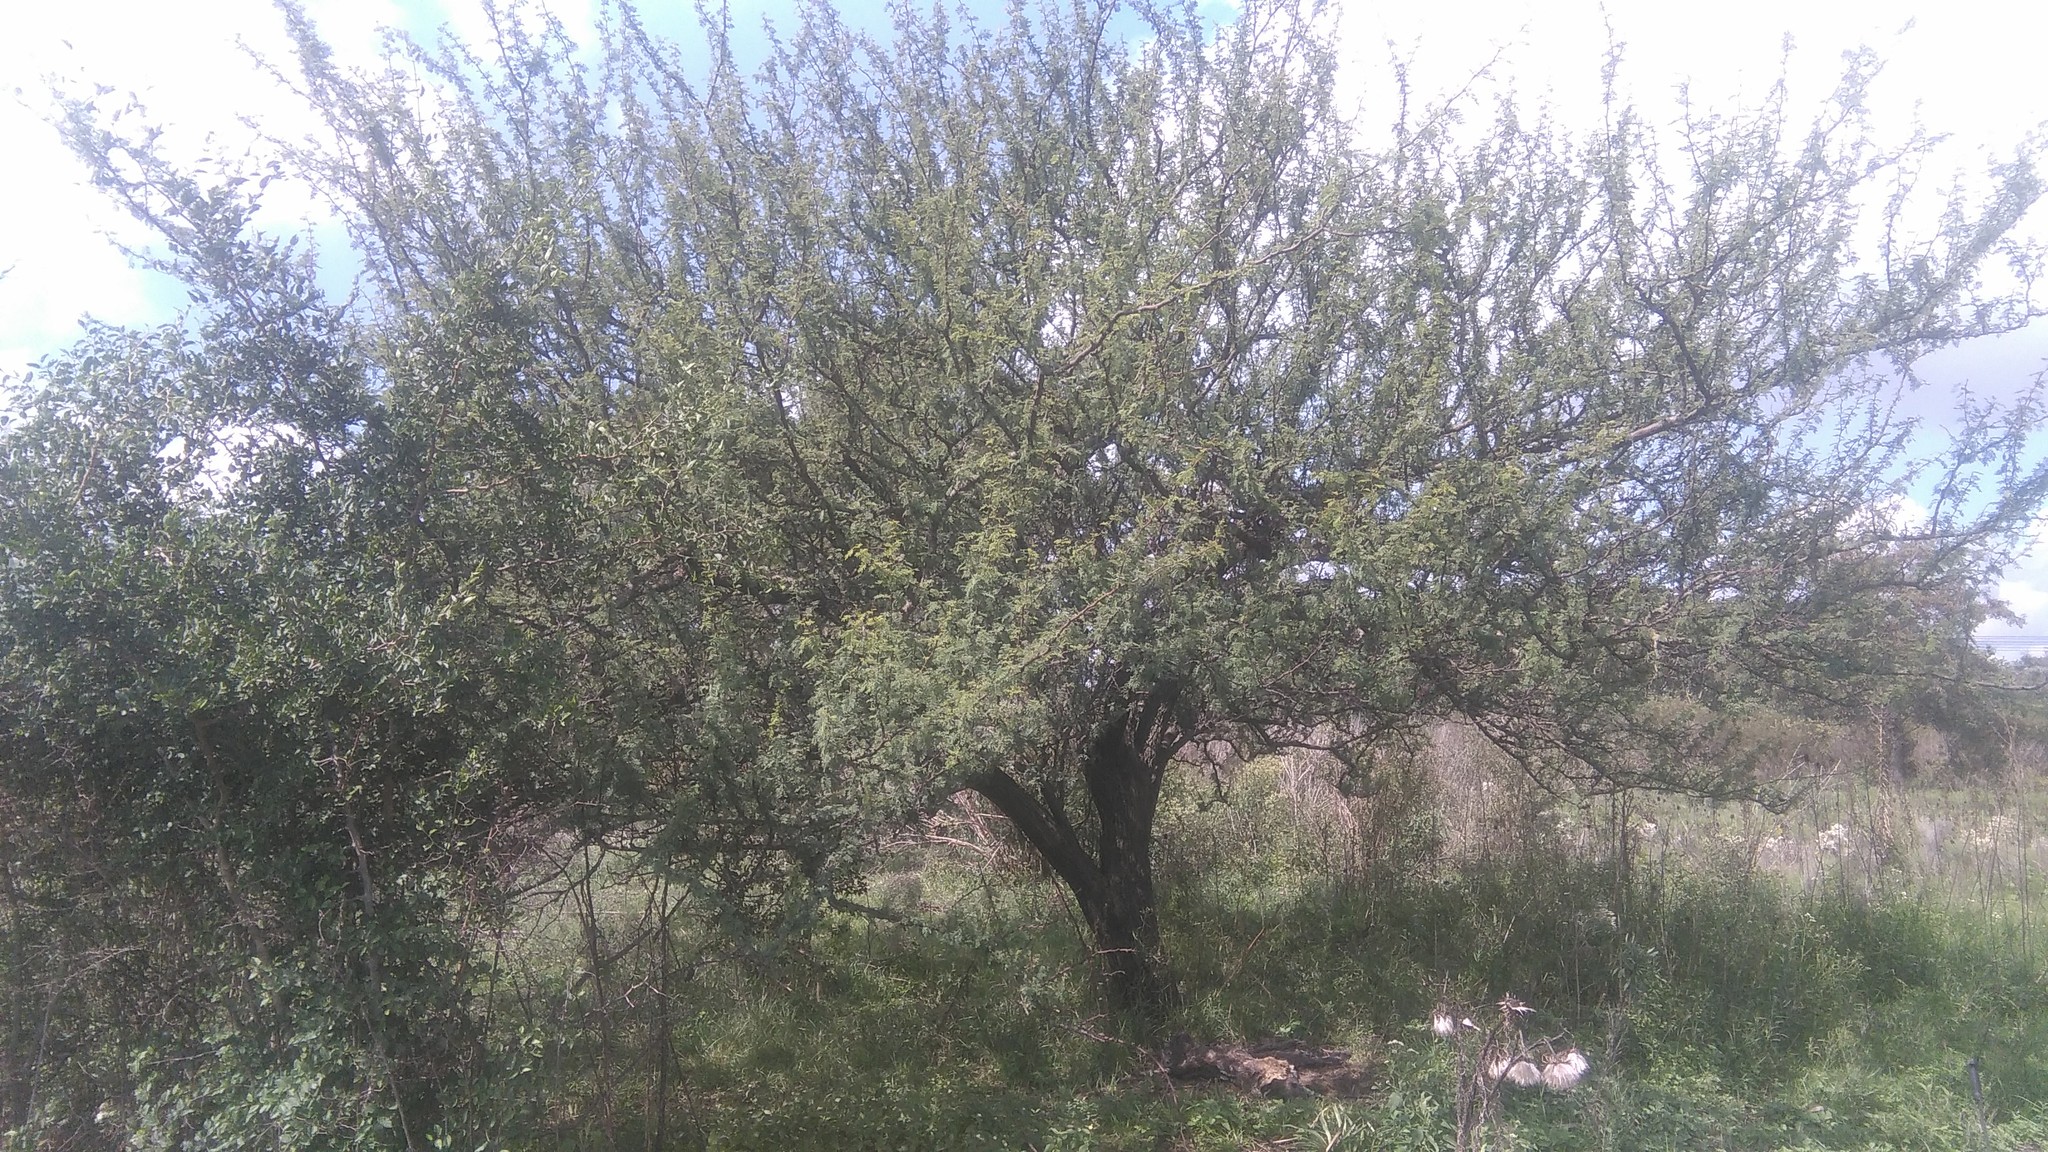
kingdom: Plantae
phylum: Tracheophyta
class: Magnoliopsida
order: Fabales
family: Fabaceae
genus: Vachellia
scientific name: Vachellia caven
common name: Roman cassie
